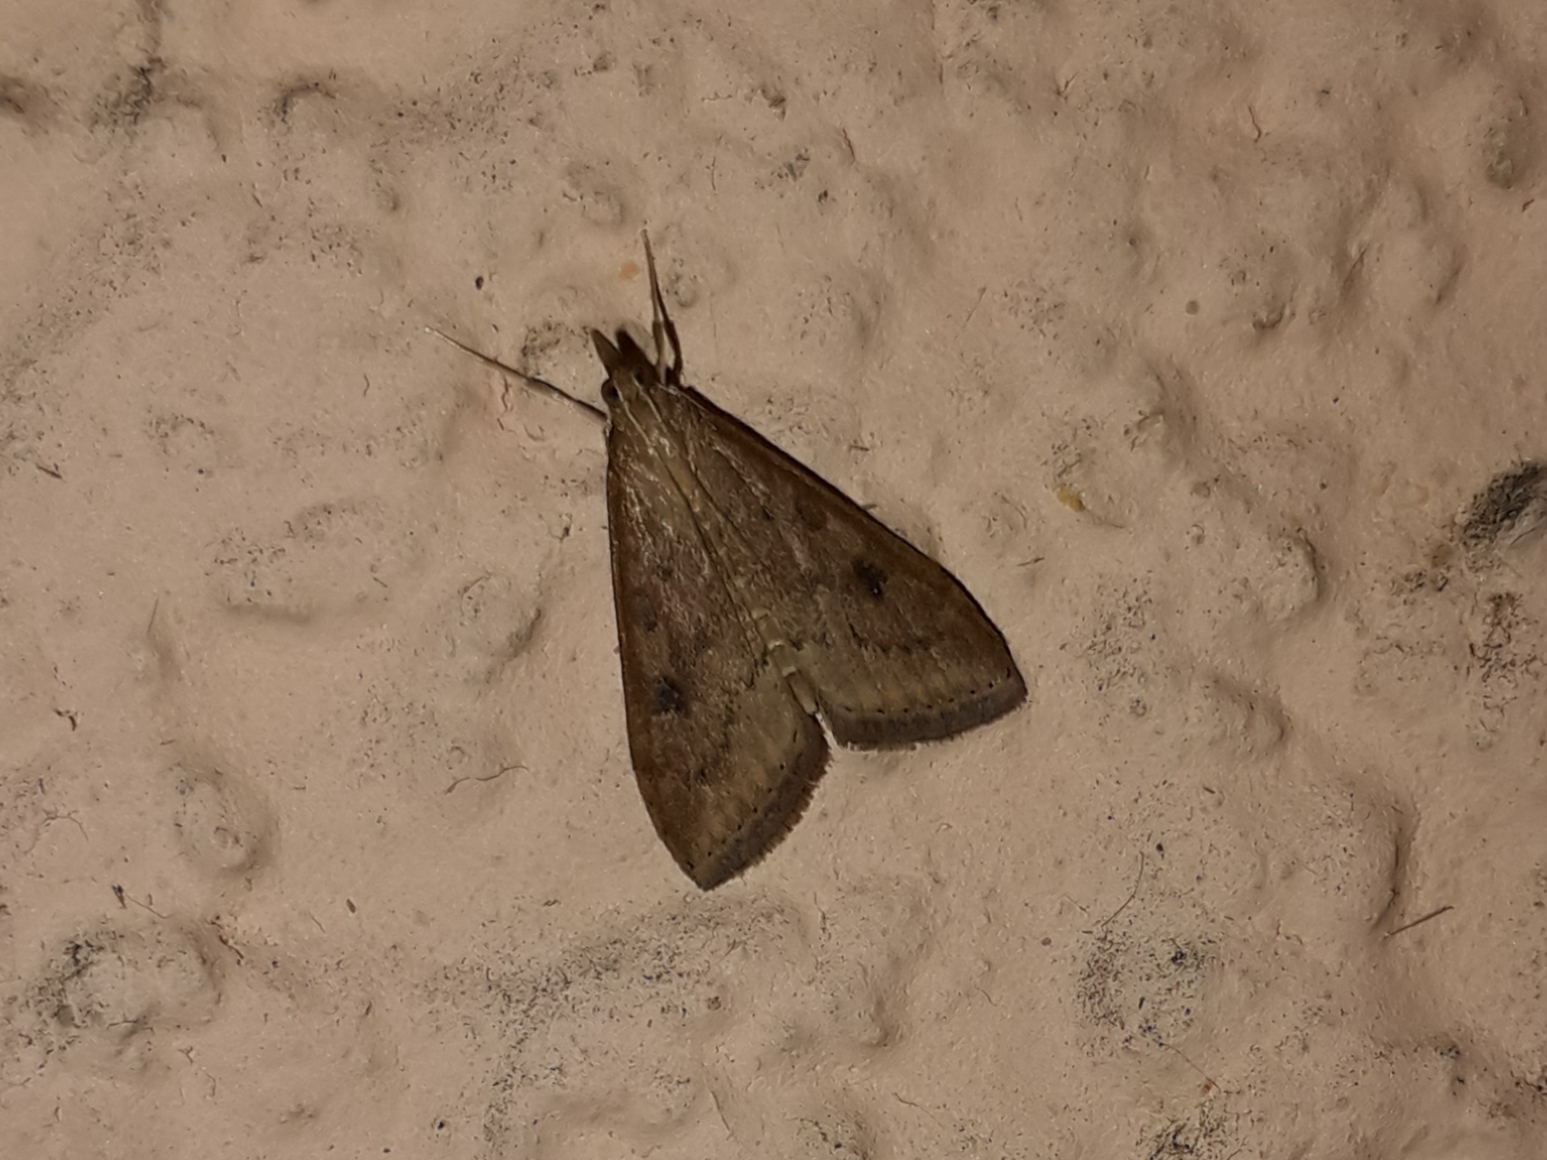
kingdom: Animalia
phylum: Arthropoda
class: Insecta
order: Lepidoptera
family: Crambidae
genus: Udea
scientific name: Udea ferrugalis
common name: Rusty dot
